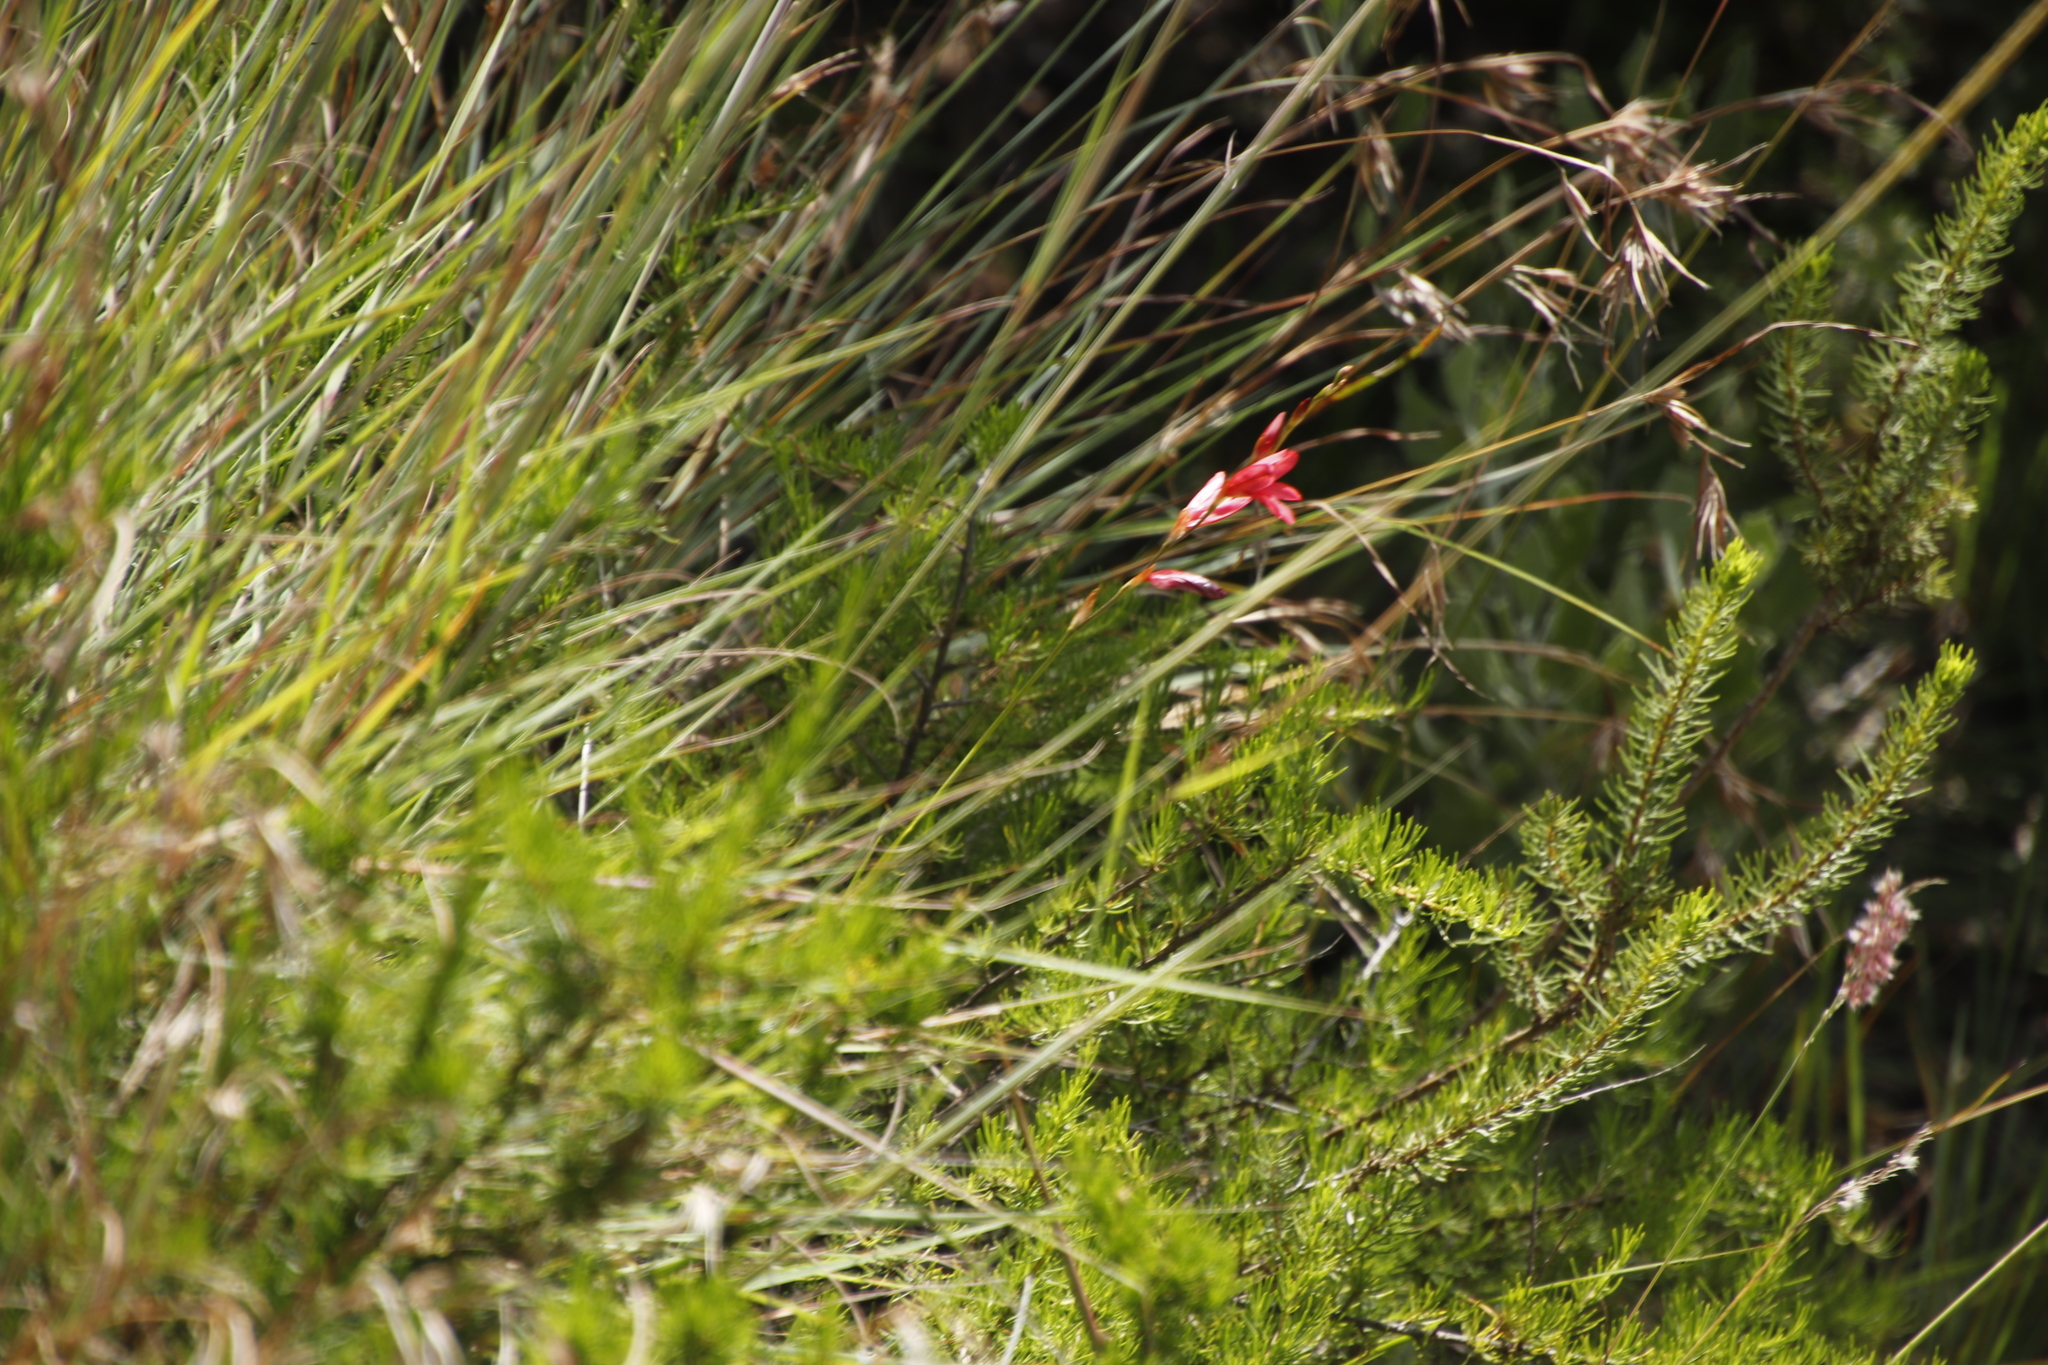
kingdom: Plantae
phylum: Tracheophyta
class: Liliopsida
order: Asparagales
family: Iridaceae
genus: Tritonia
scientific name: Tritonia drakensbergensis
